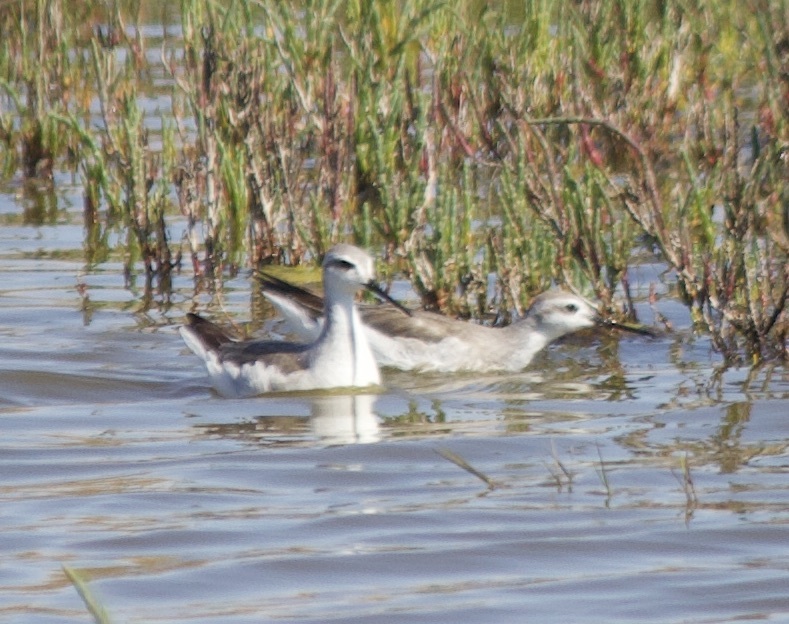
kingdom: Animalia
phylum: Chordata
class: Aves
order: Charadriiformes
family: Scolopacidae
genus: Phalaropus
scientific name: Phalaropus tricolor
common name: Wilson's phalarope
